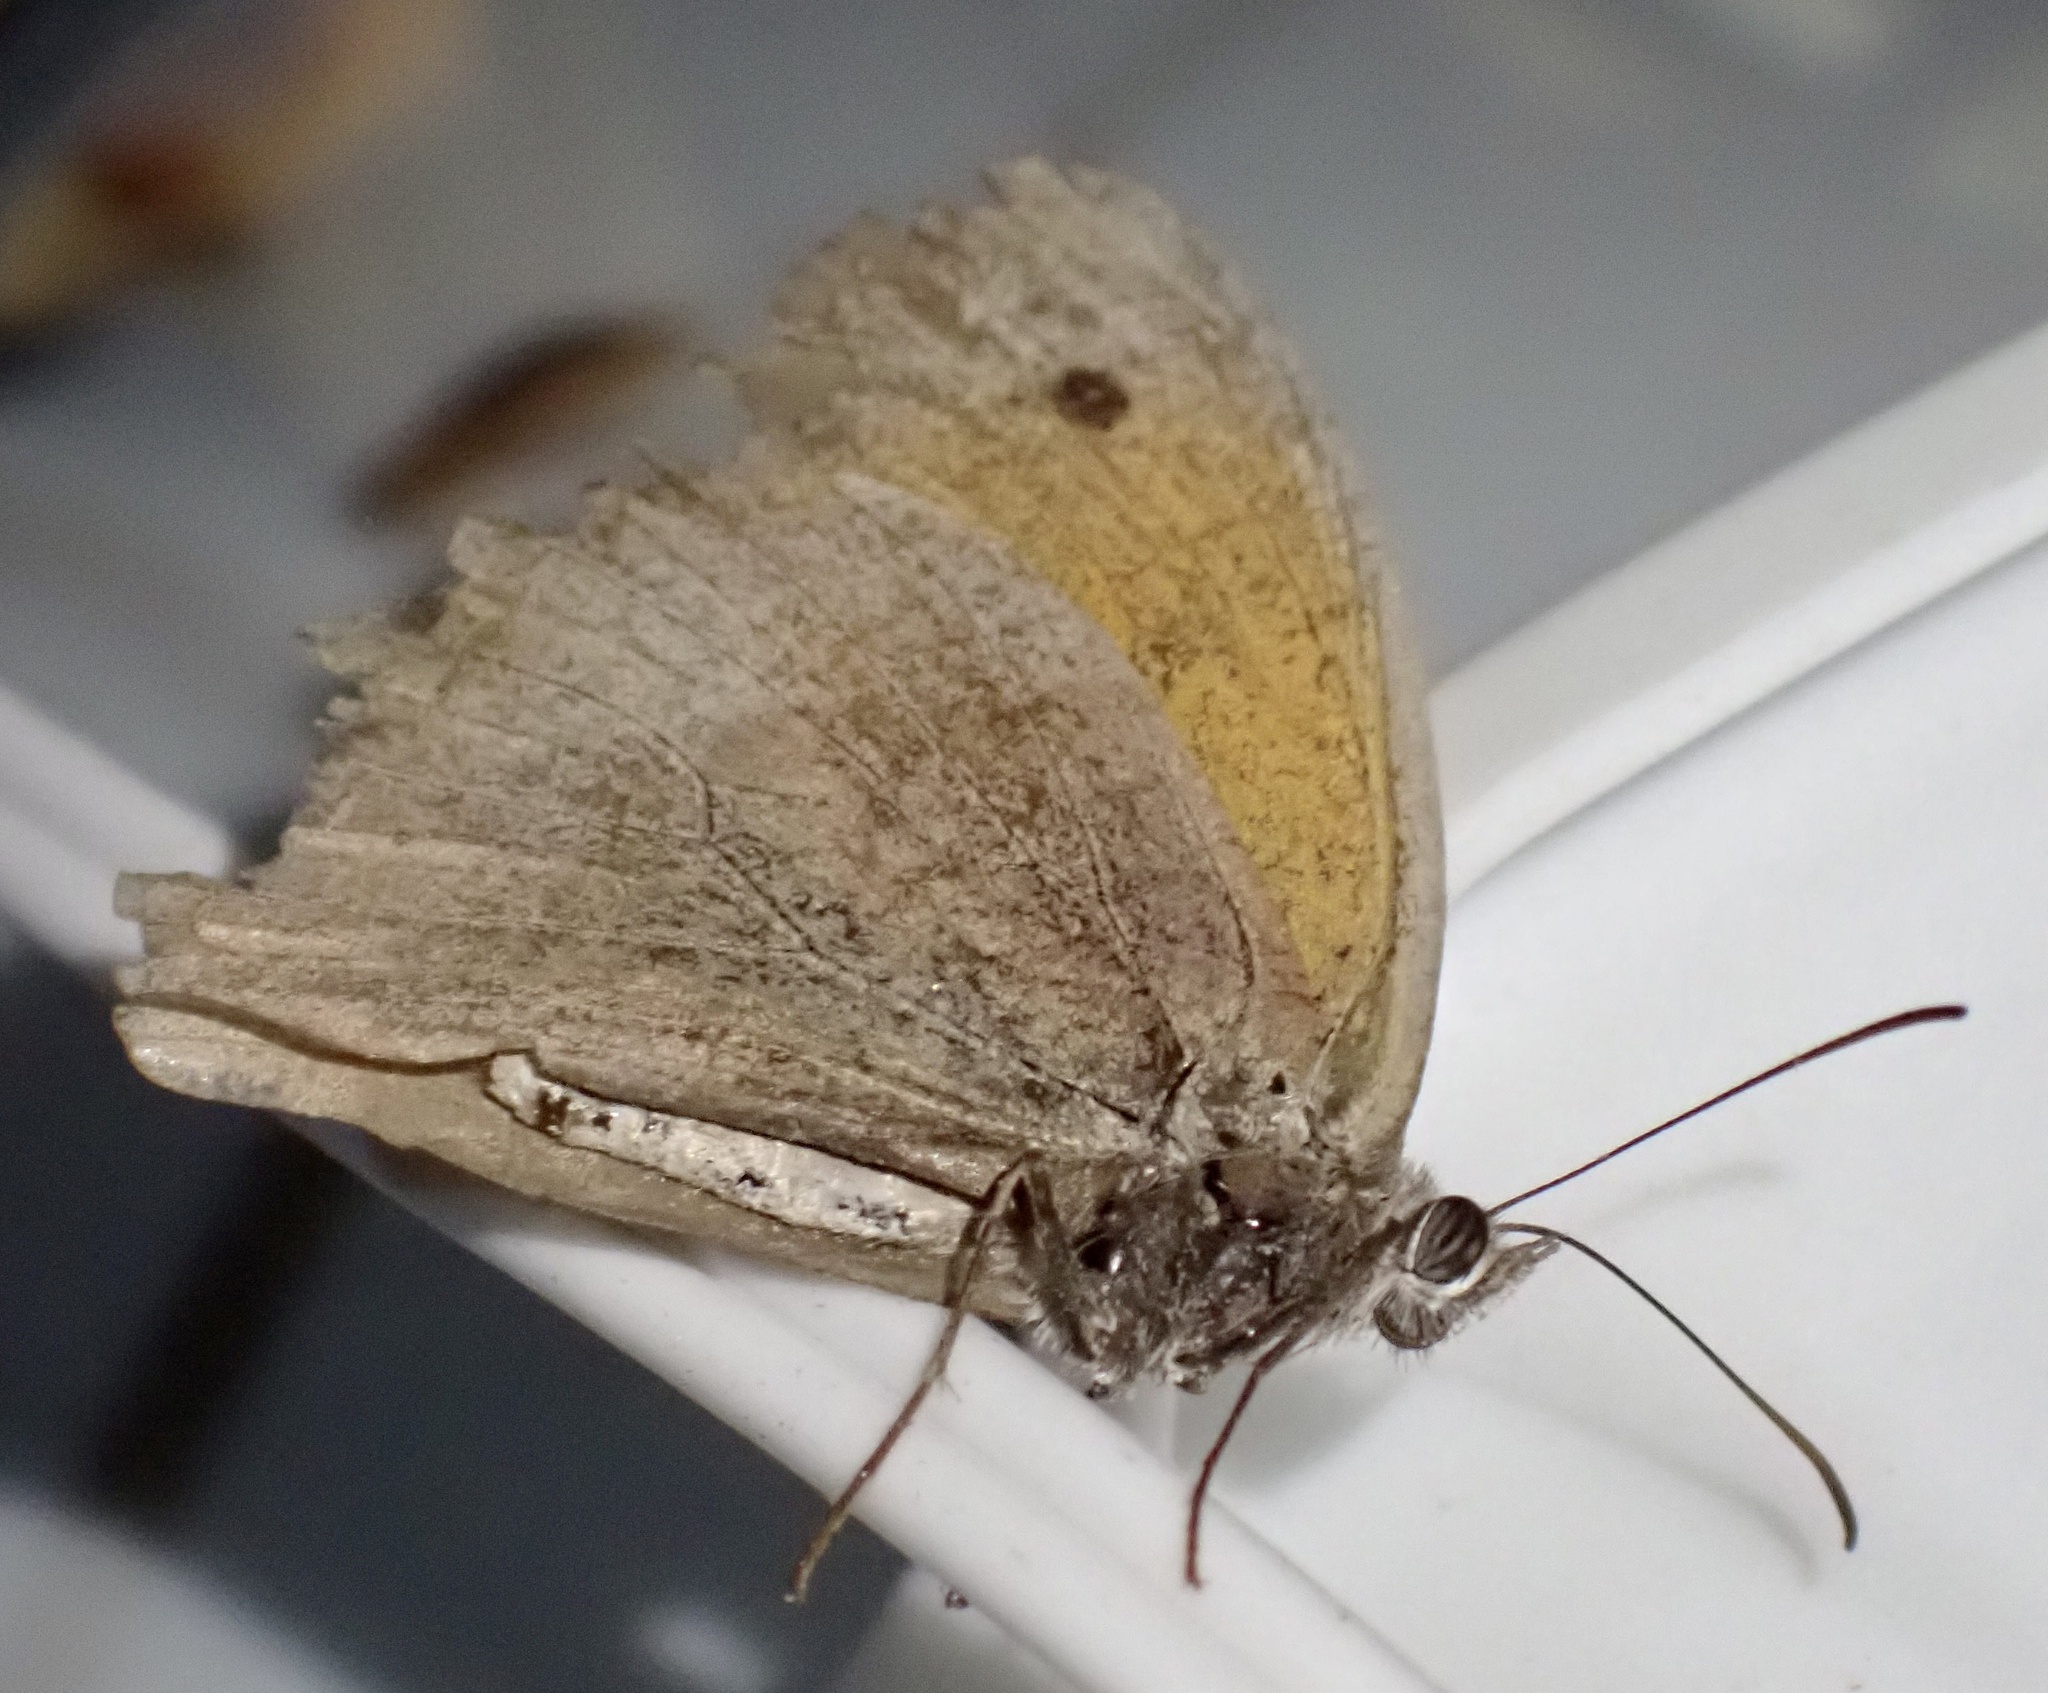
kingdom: Animalia
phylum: Arthropoda
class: Insecta
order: Lepidoptera
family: Nymphalidae
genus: Maniola
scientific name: Maniola jurtina
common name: Meadow brown
